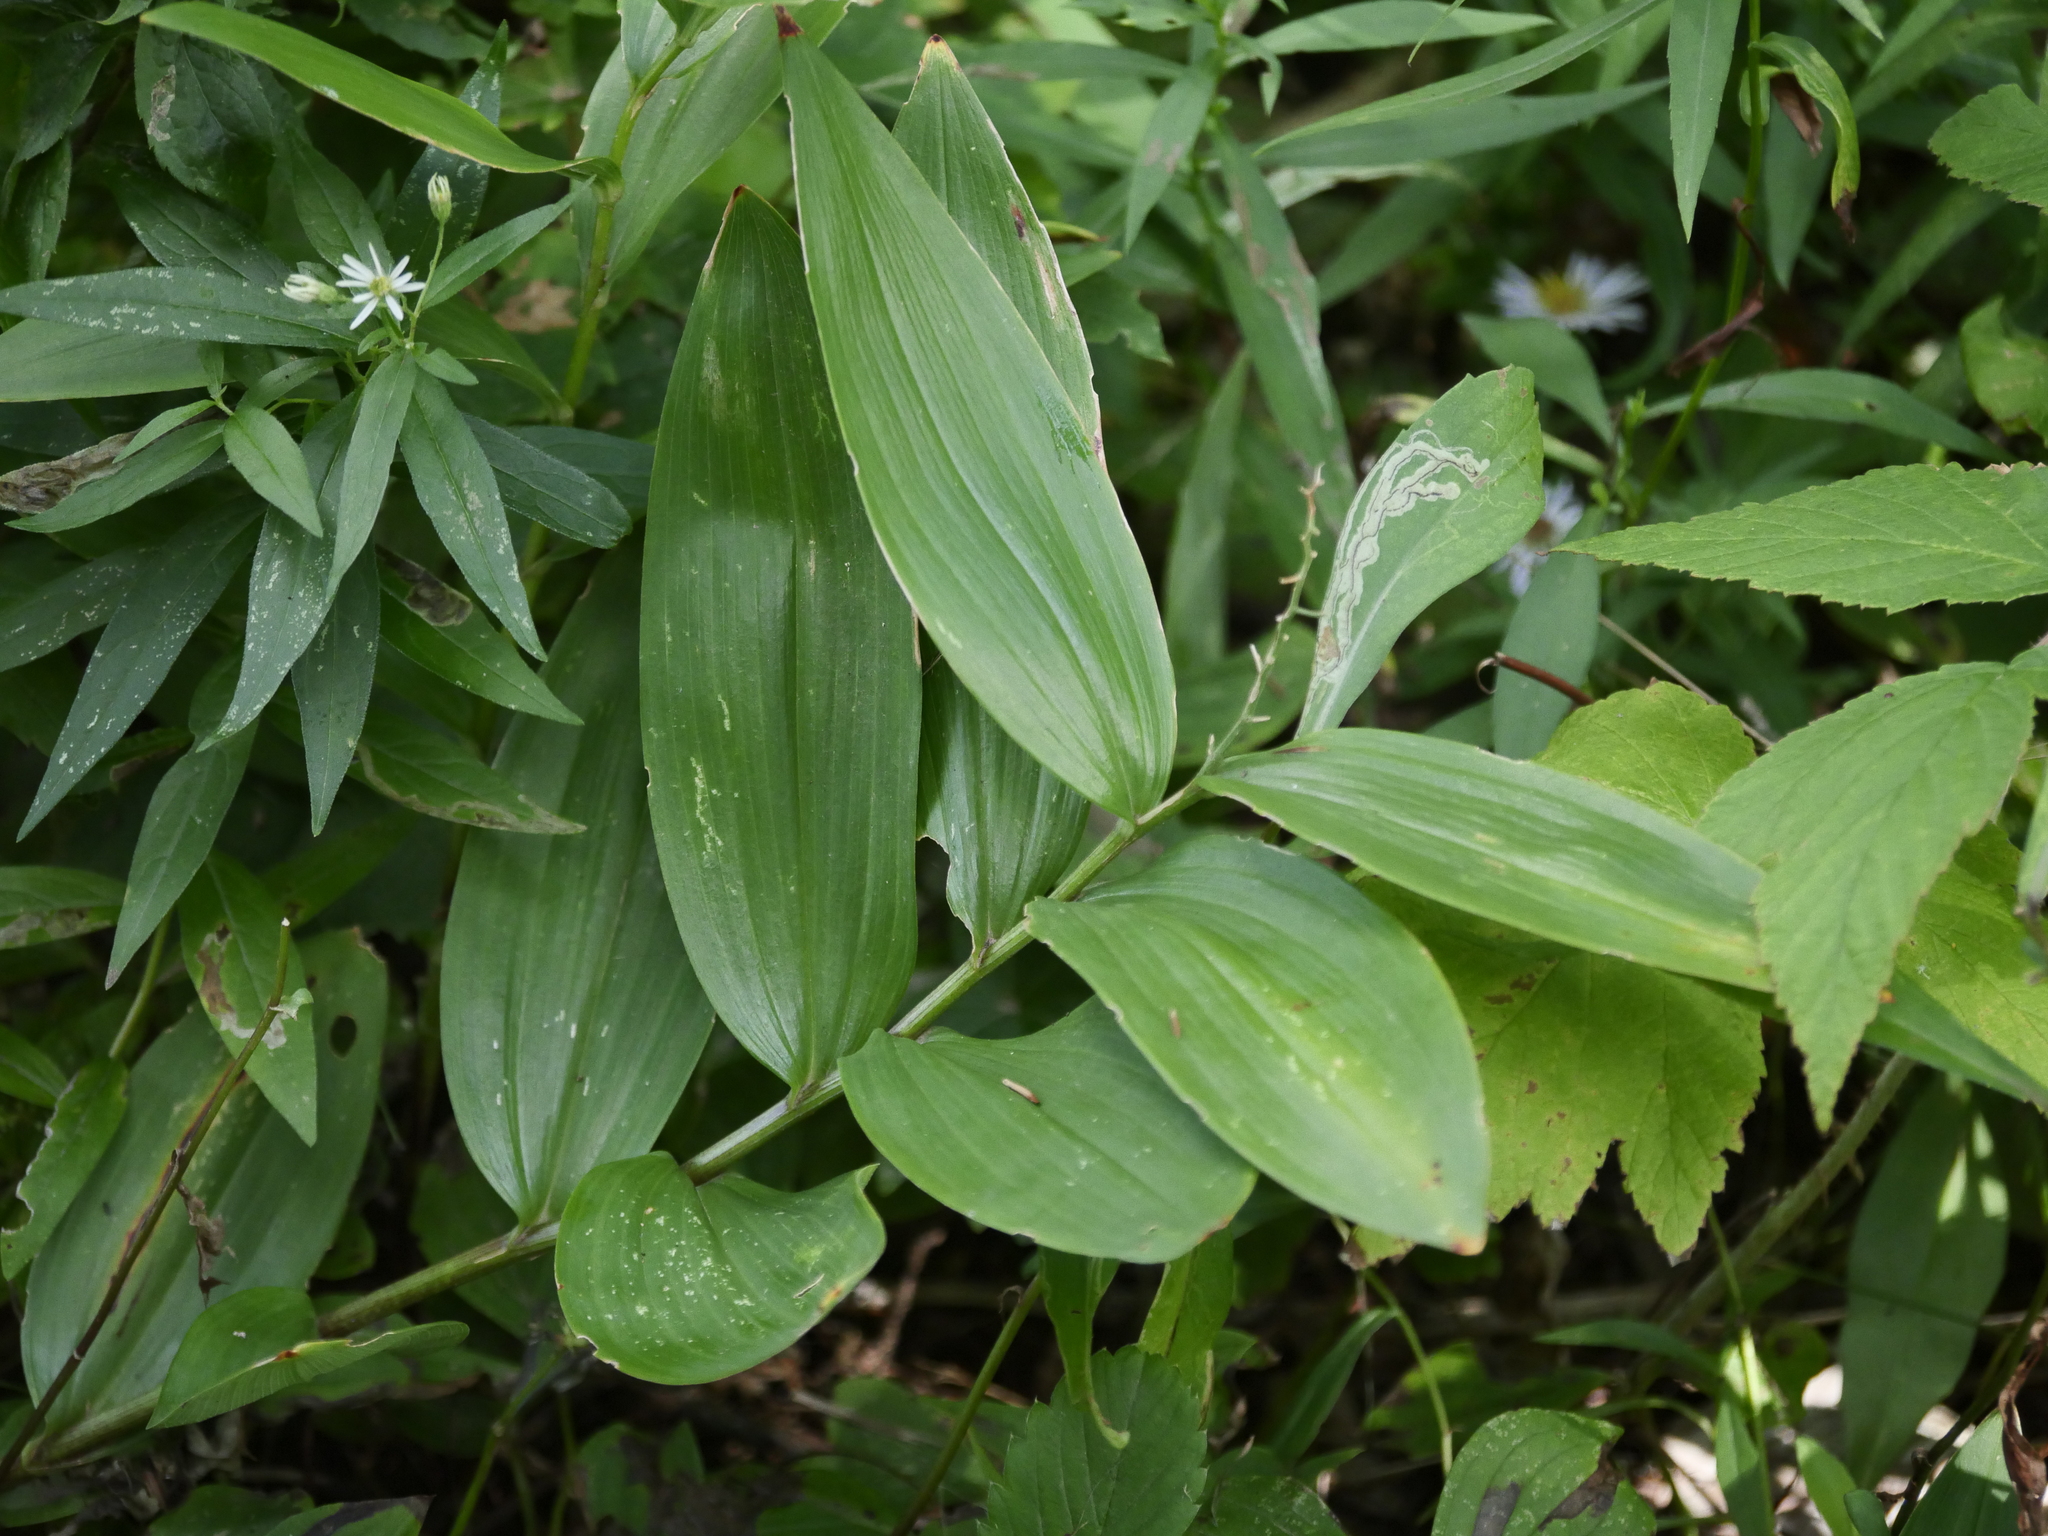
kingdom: Plantae
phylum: Tracheophyta
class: Liliopsida
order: Asparagales
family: Asparagaceae
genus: Maianthemum
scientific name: Maianthemum stellatum
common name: Little false solomon's seal
